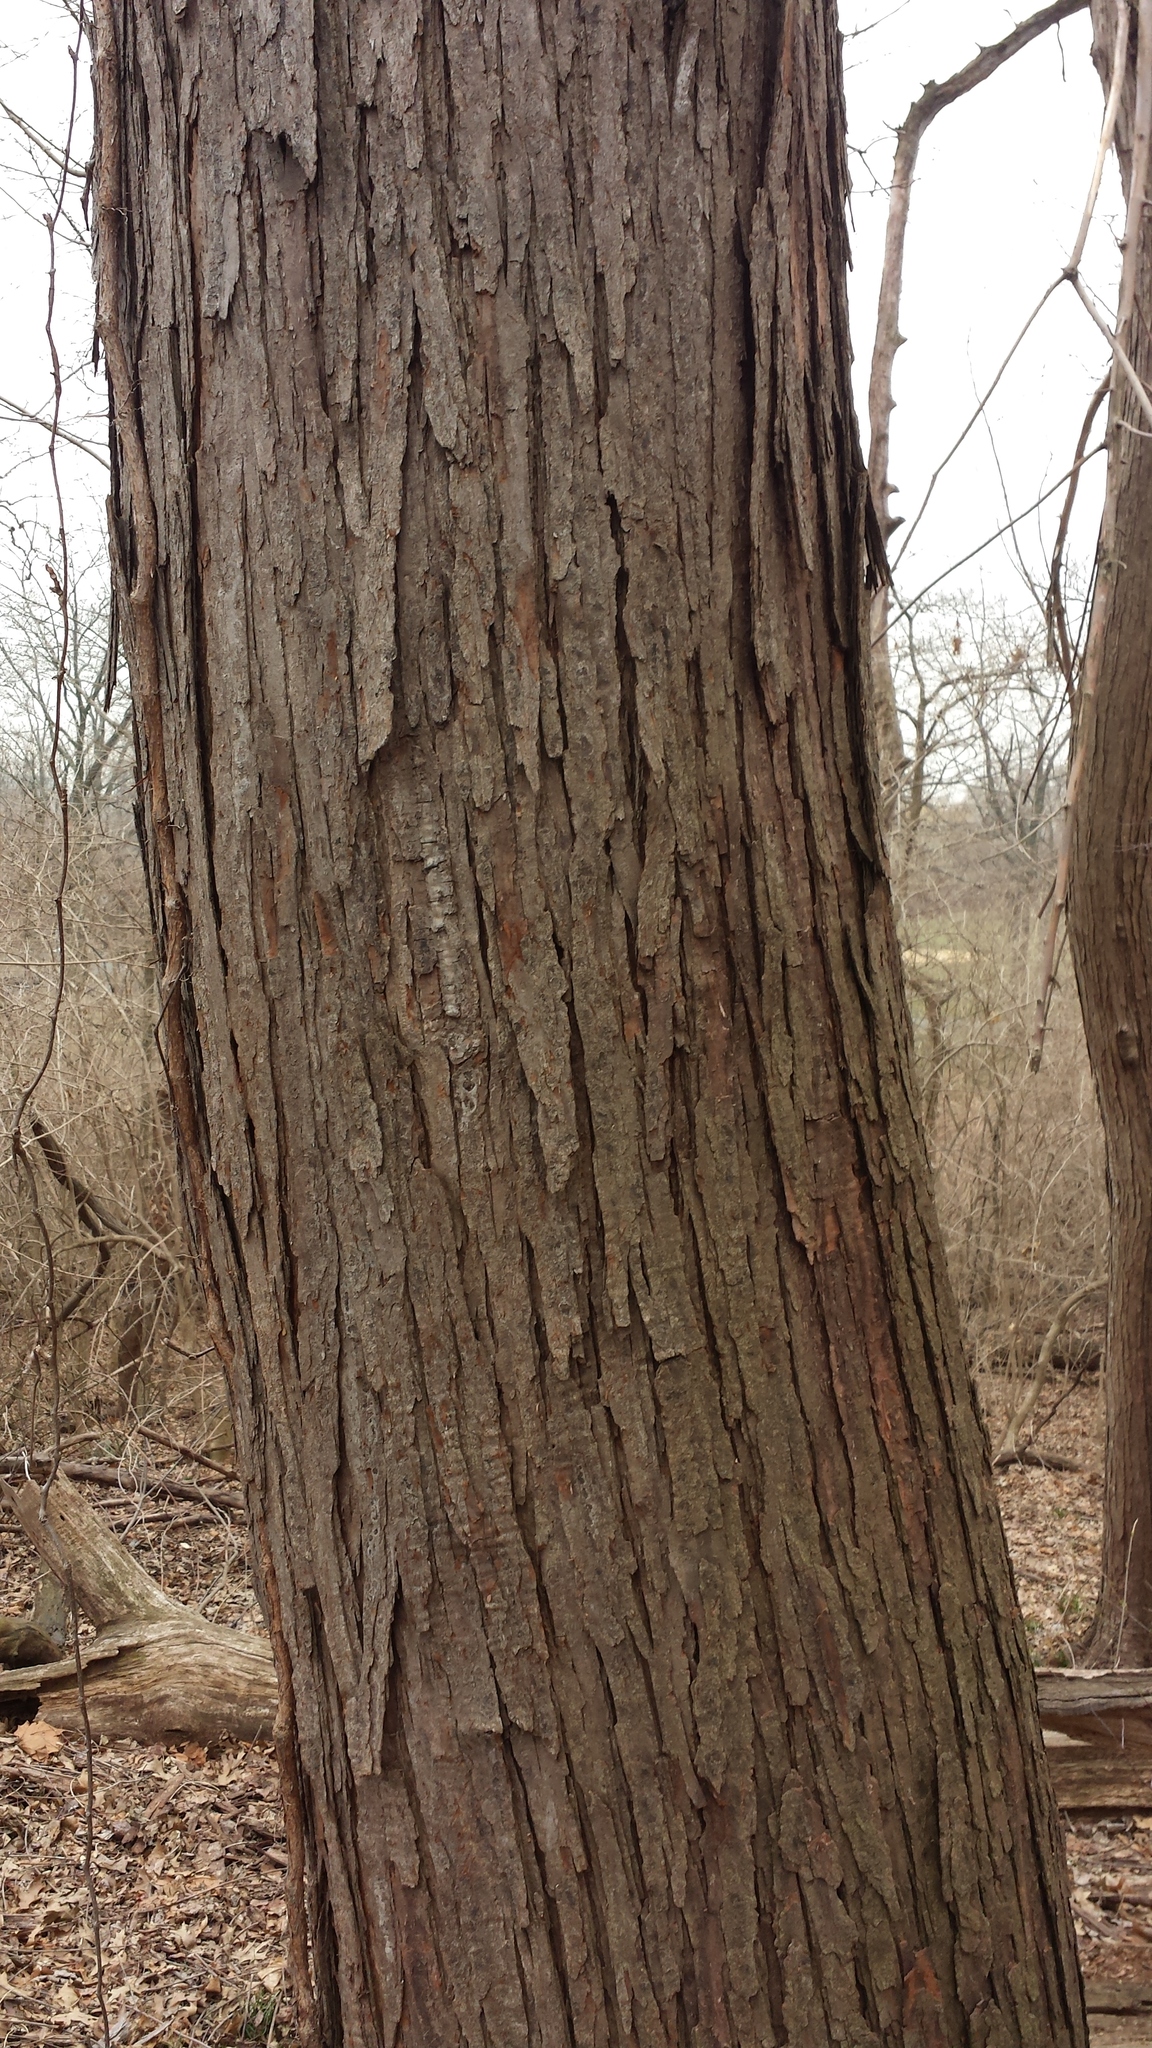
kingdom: Plantae
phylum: Tracheophyta
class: Magnoliopsida
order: Sapindales
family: Meliaceae
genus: Toona
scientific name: Toona sinensis
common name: Red toon
